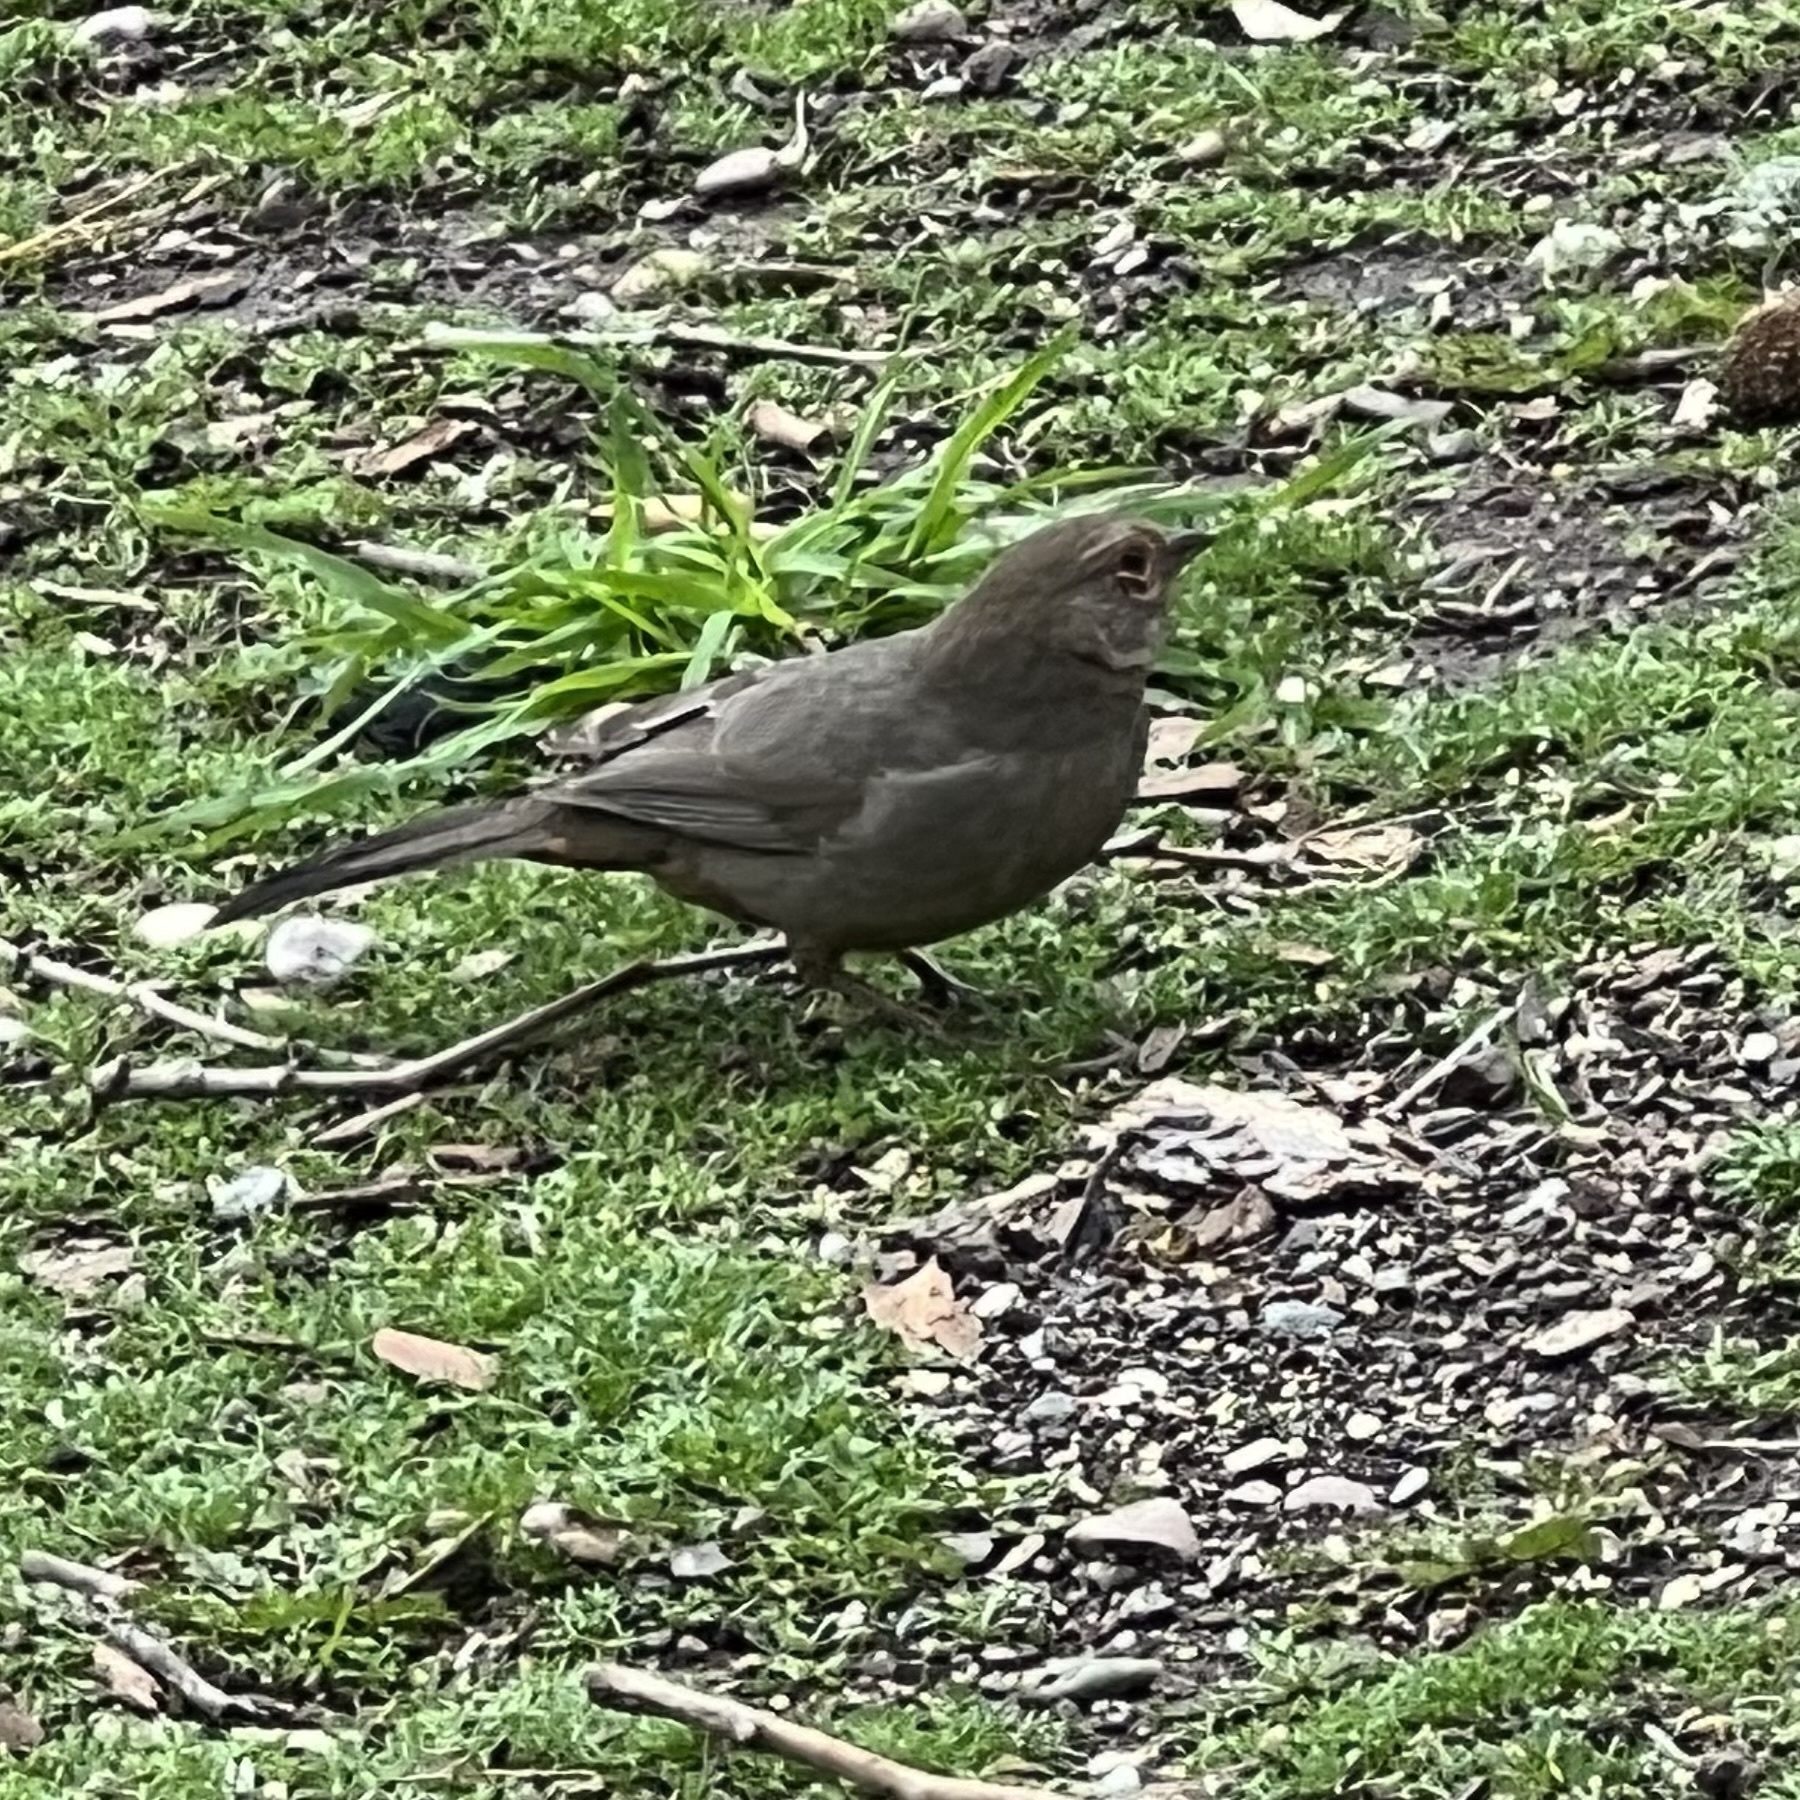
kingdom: Animalia
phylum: Chordata
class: Aves
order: Passeriformes
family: Passerellidae
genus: Melozone
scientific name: Melozone crissalis
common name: California towhee
